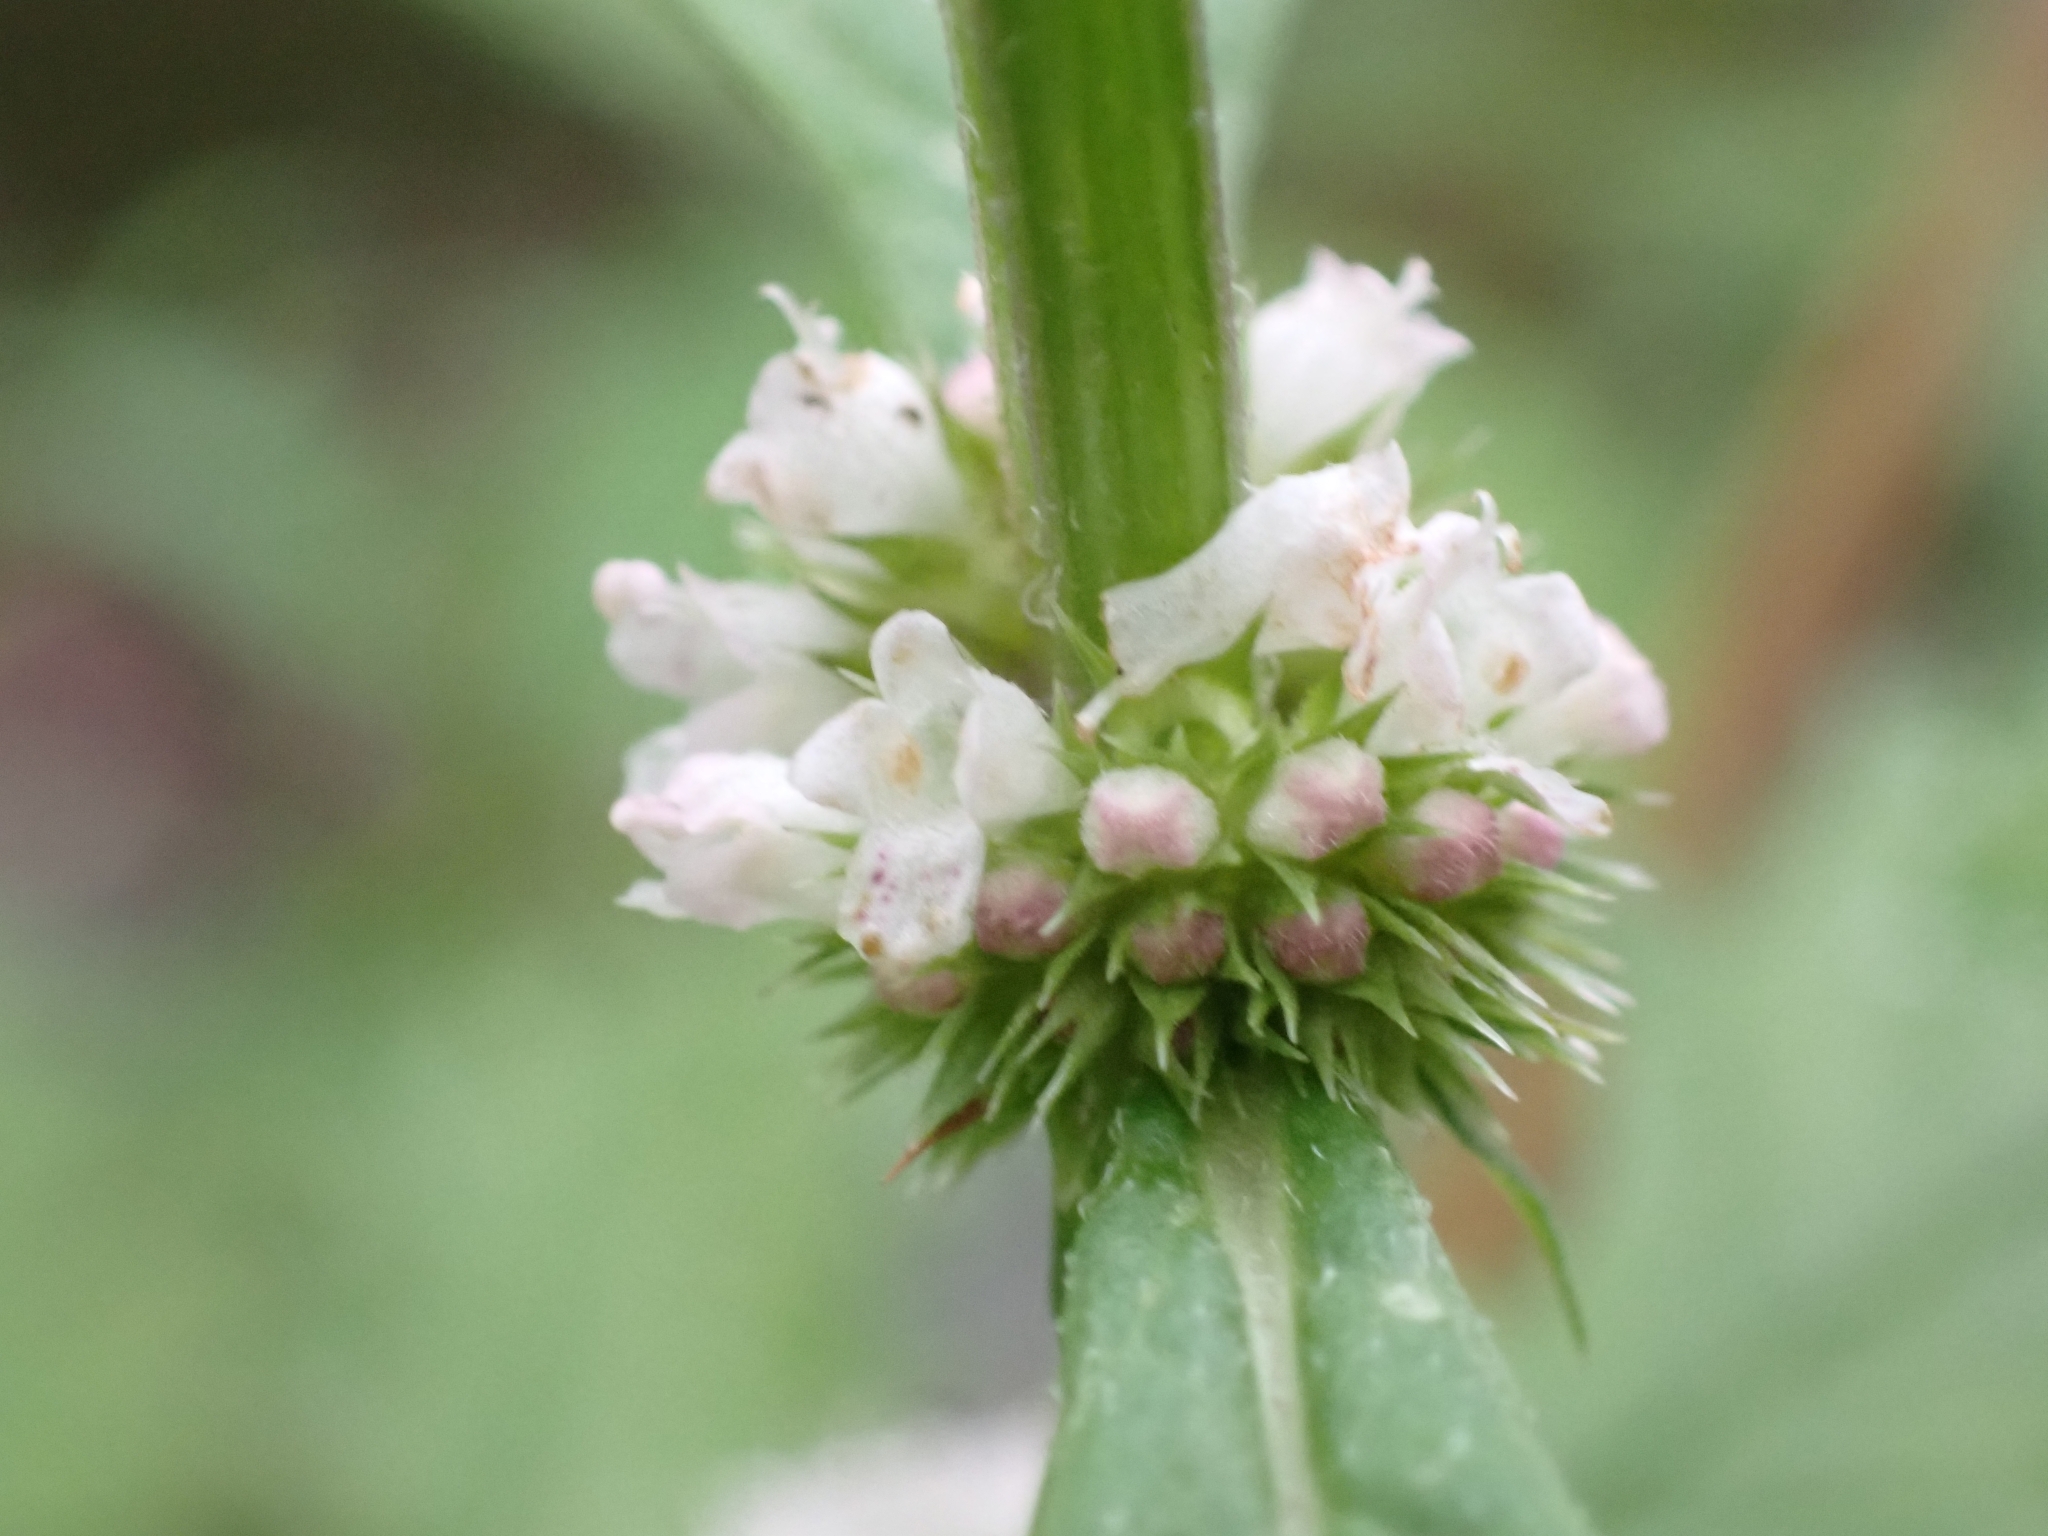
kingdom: Plantae
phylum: Tracheophyta
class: Magnoliopsida
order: Lamiales
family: Lamiaceae
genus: Lycopus
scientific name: Lycopus europaeus
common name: European bugleweed
